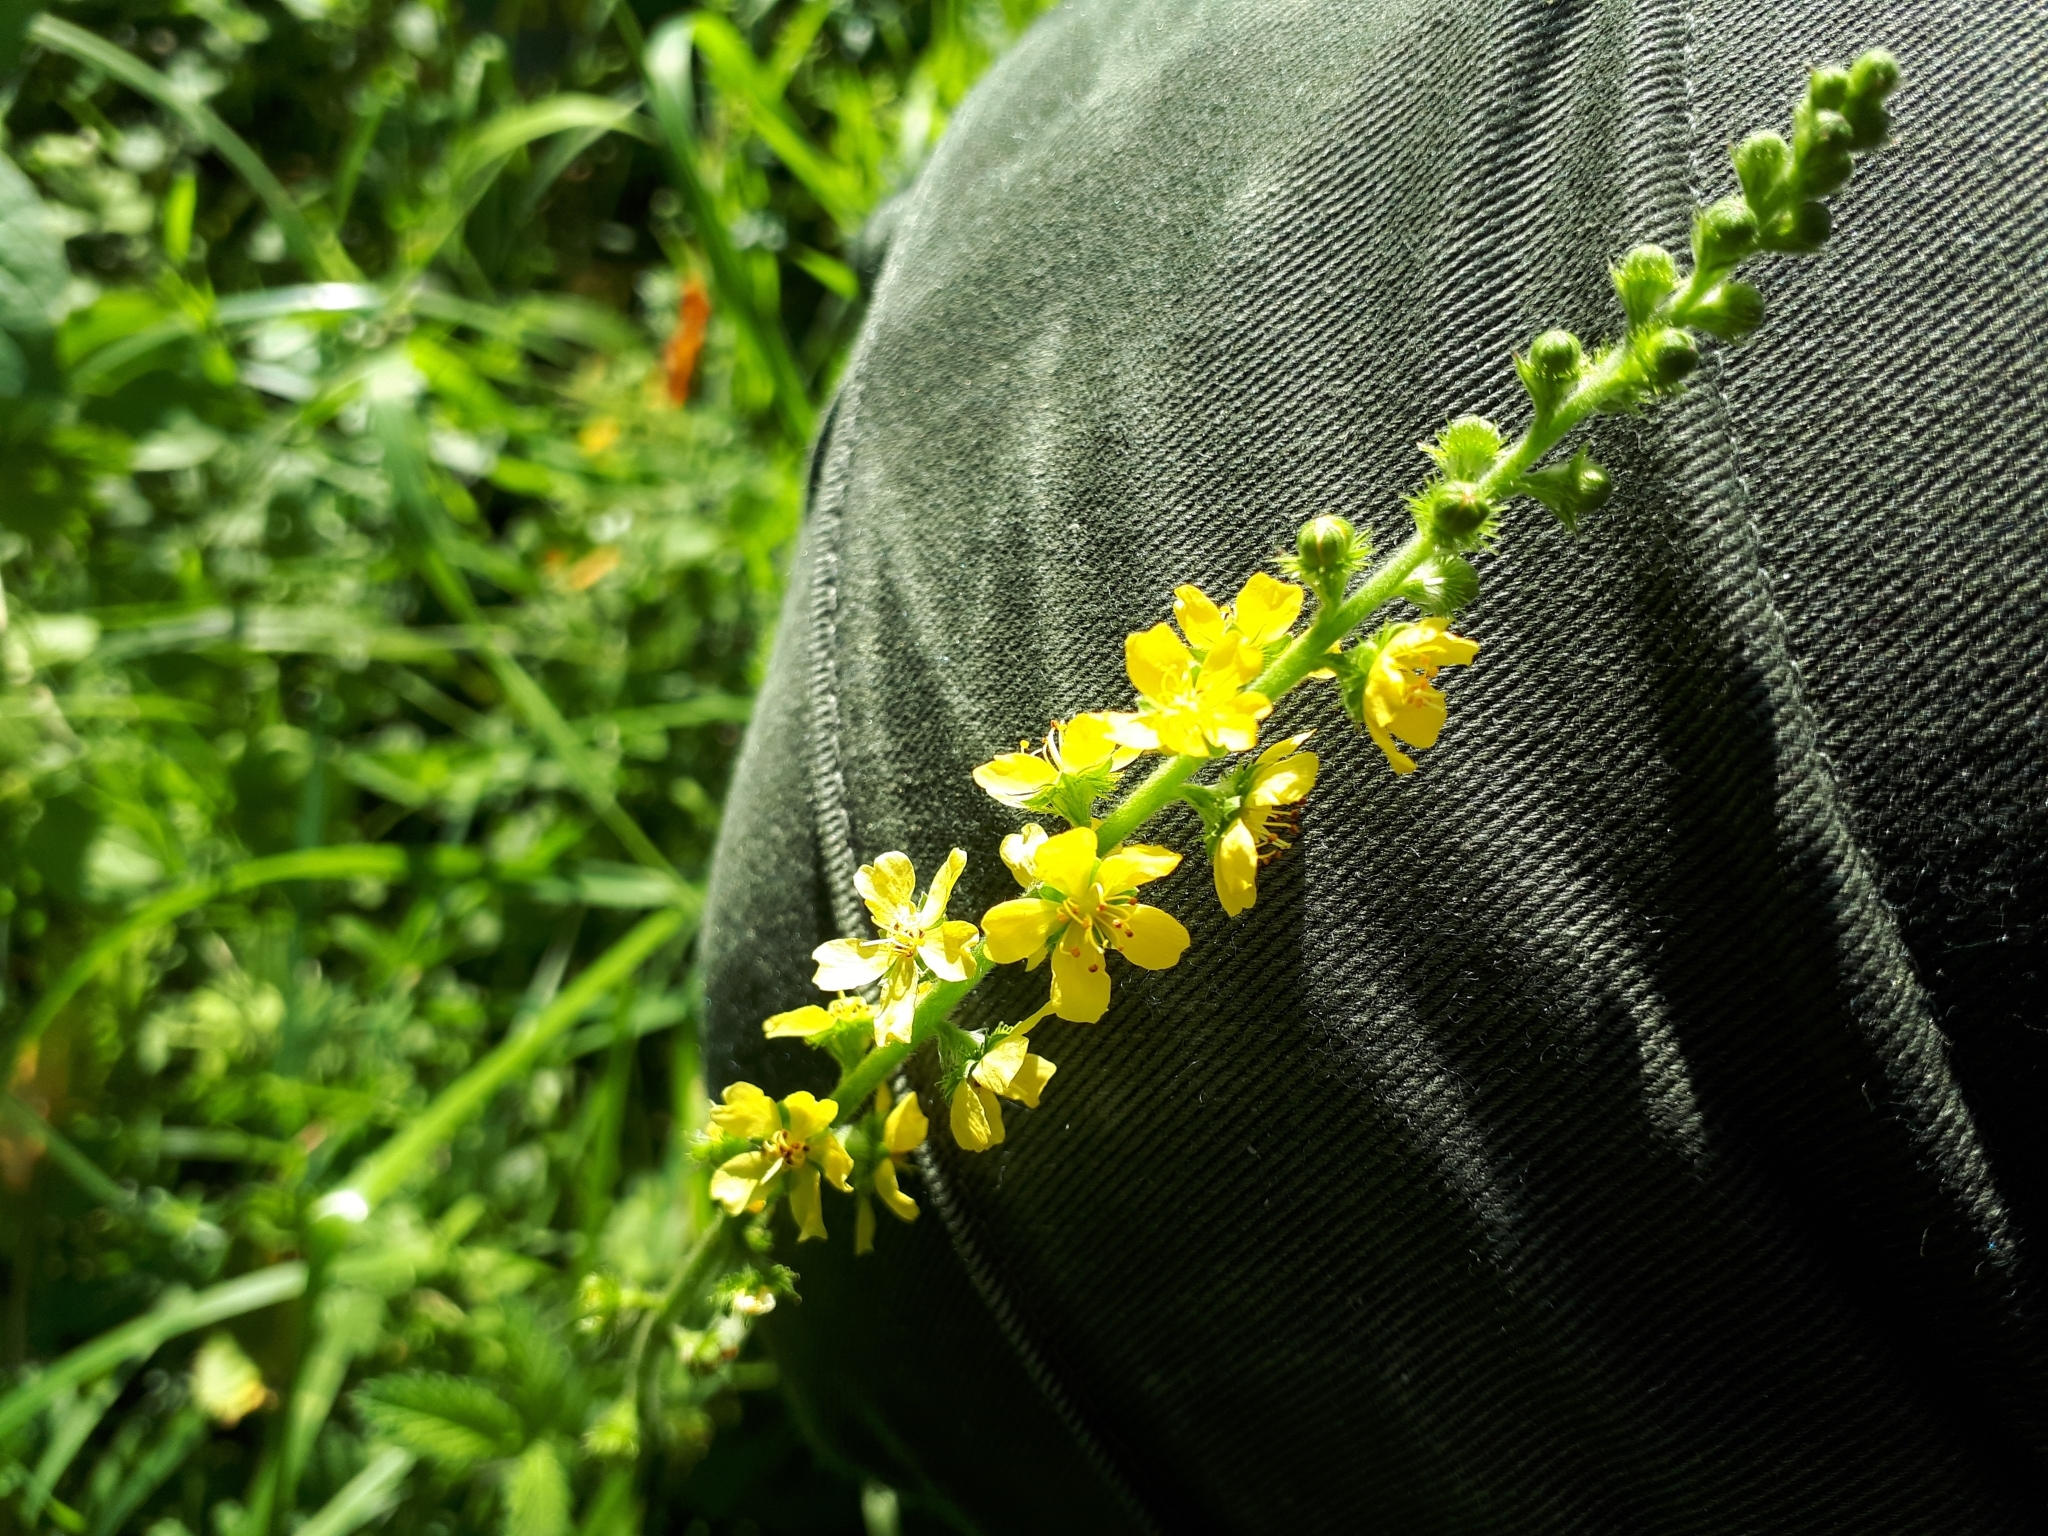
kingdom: Plantae
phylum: Tracheophyta
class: Magnoliopsida
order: Rosales
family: Rosaceae
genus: Agrimonia
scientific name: Agrimonia eupatoria
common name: Agrimony
